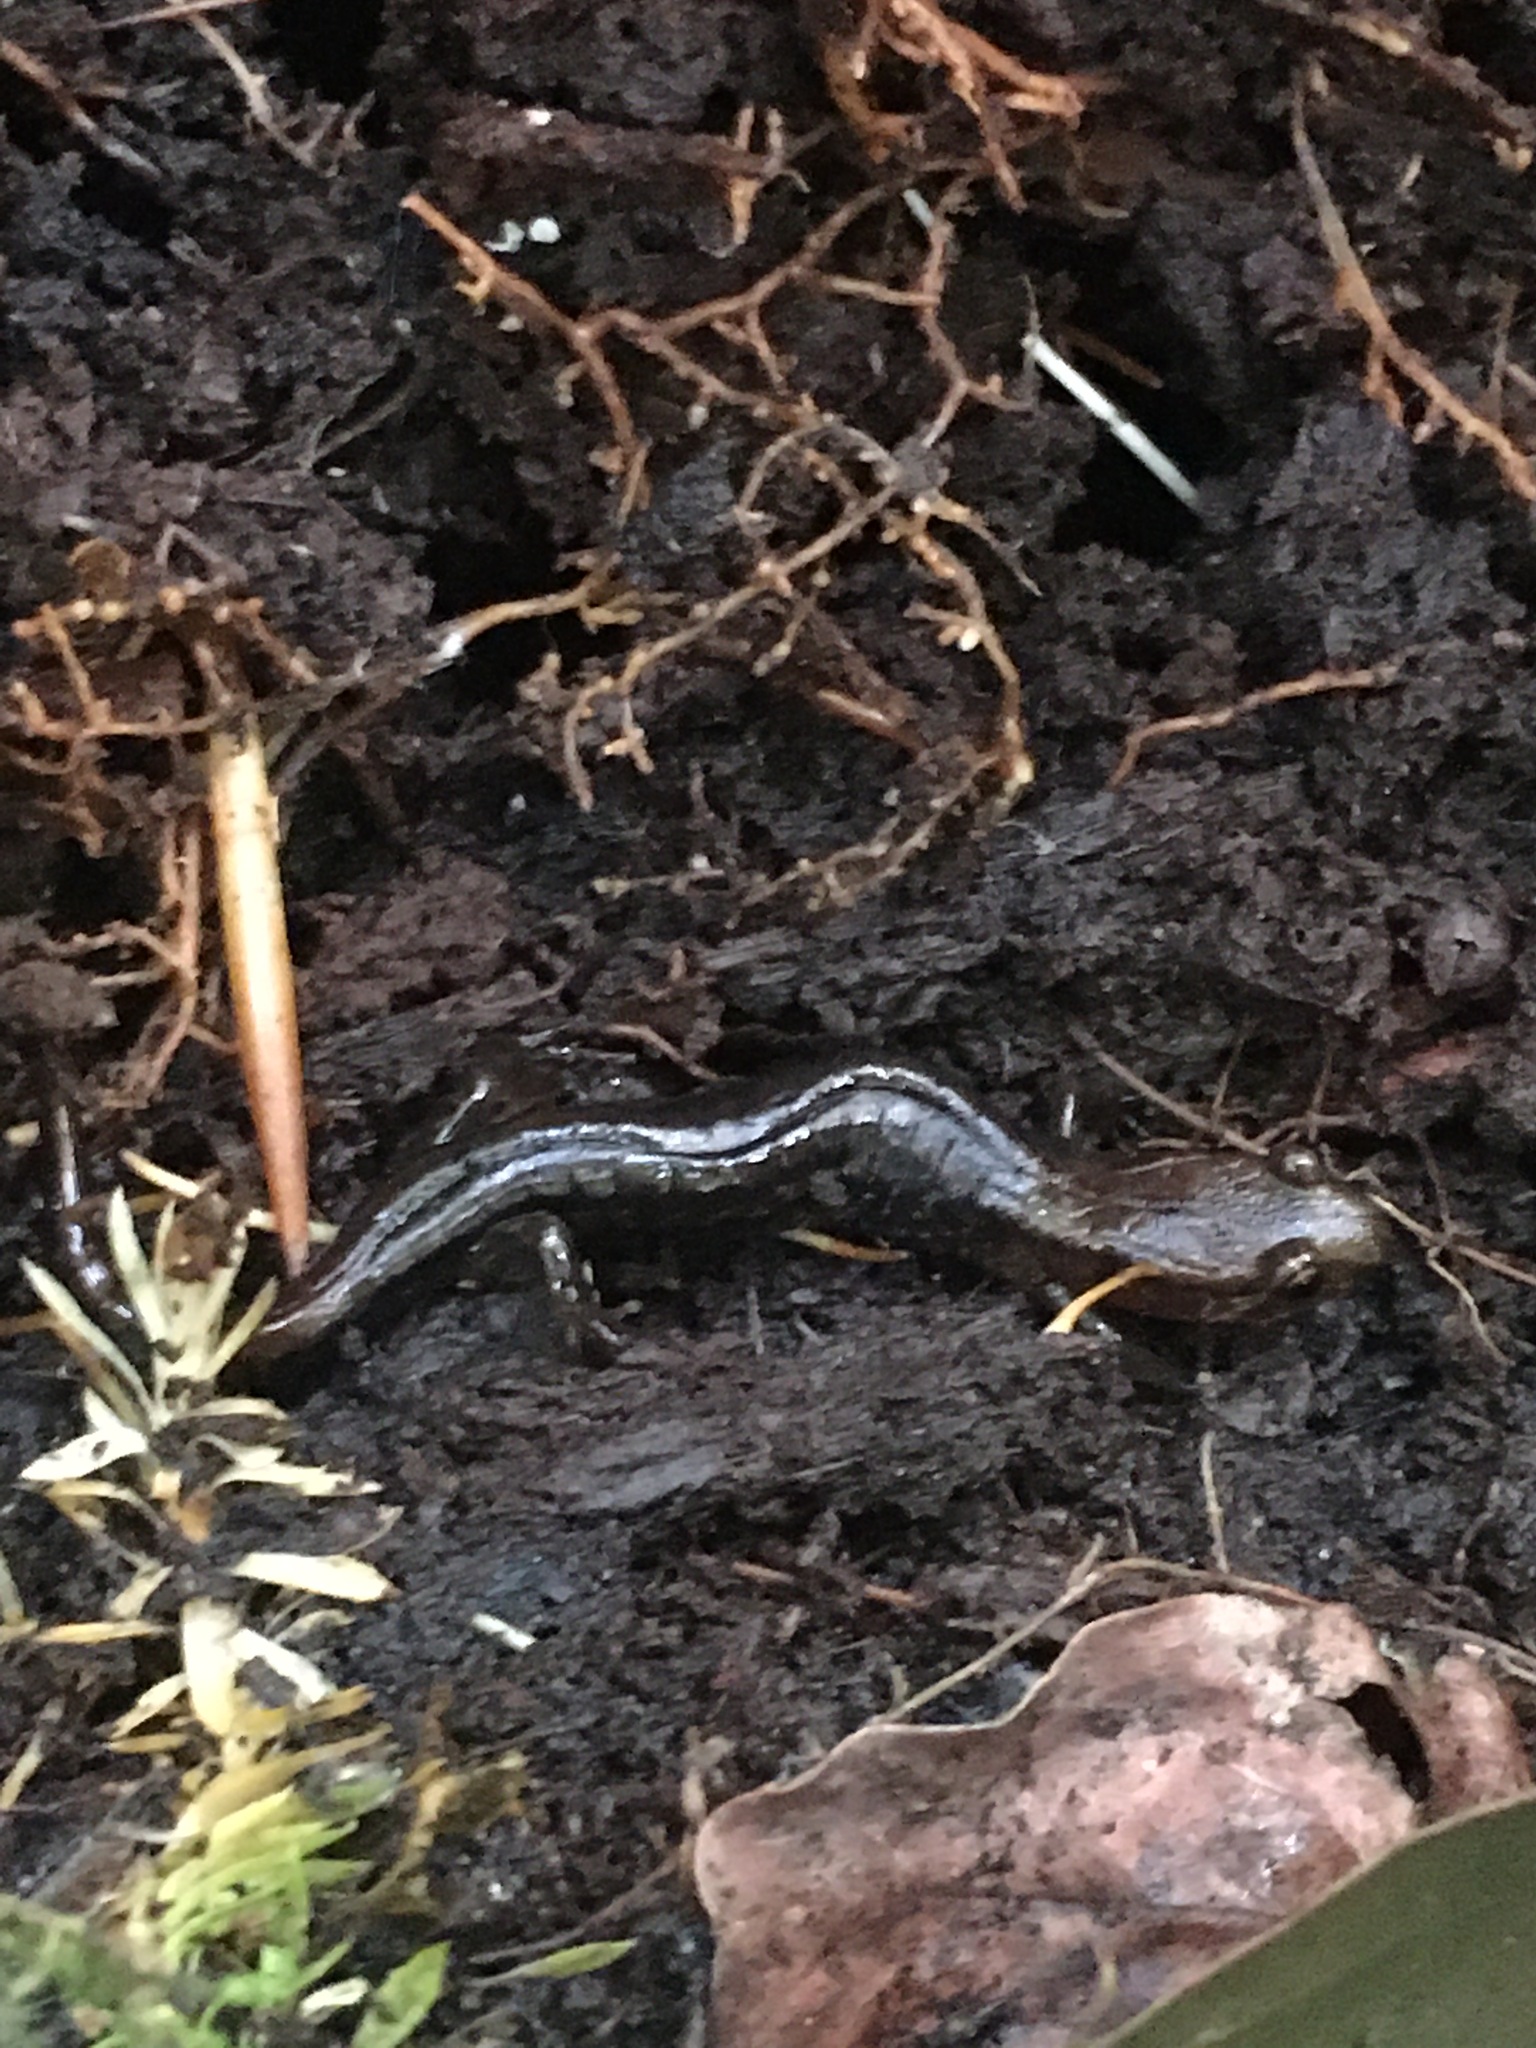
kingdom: Animalia
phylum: Chordata
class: Amphibia
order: Caudata
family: Plethodontidae
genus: Desmognathus
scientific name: Desmognathus orestes
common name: Blue ridge dusky salamander
